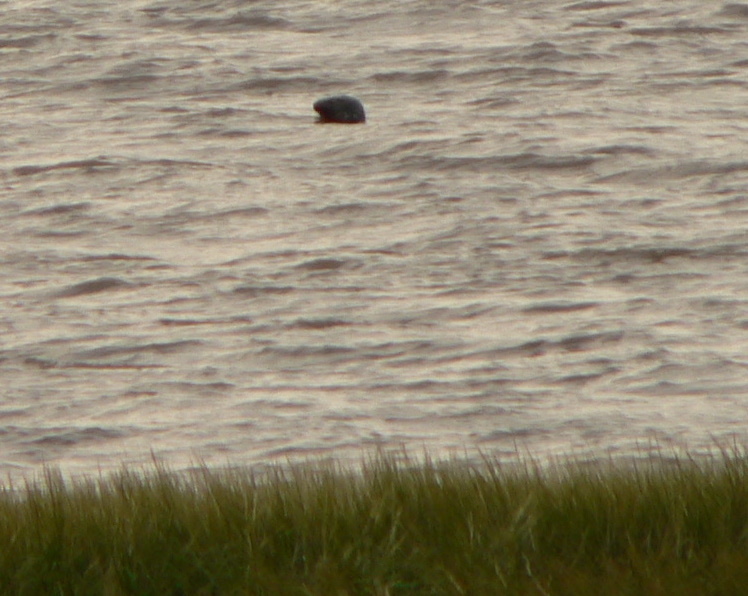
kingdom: Animalia
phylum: Chordata
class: Mammalia
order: Carnivora
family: Phocidae
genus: Halichoerus
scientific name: Halichoerus grypus
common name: Grey seal
